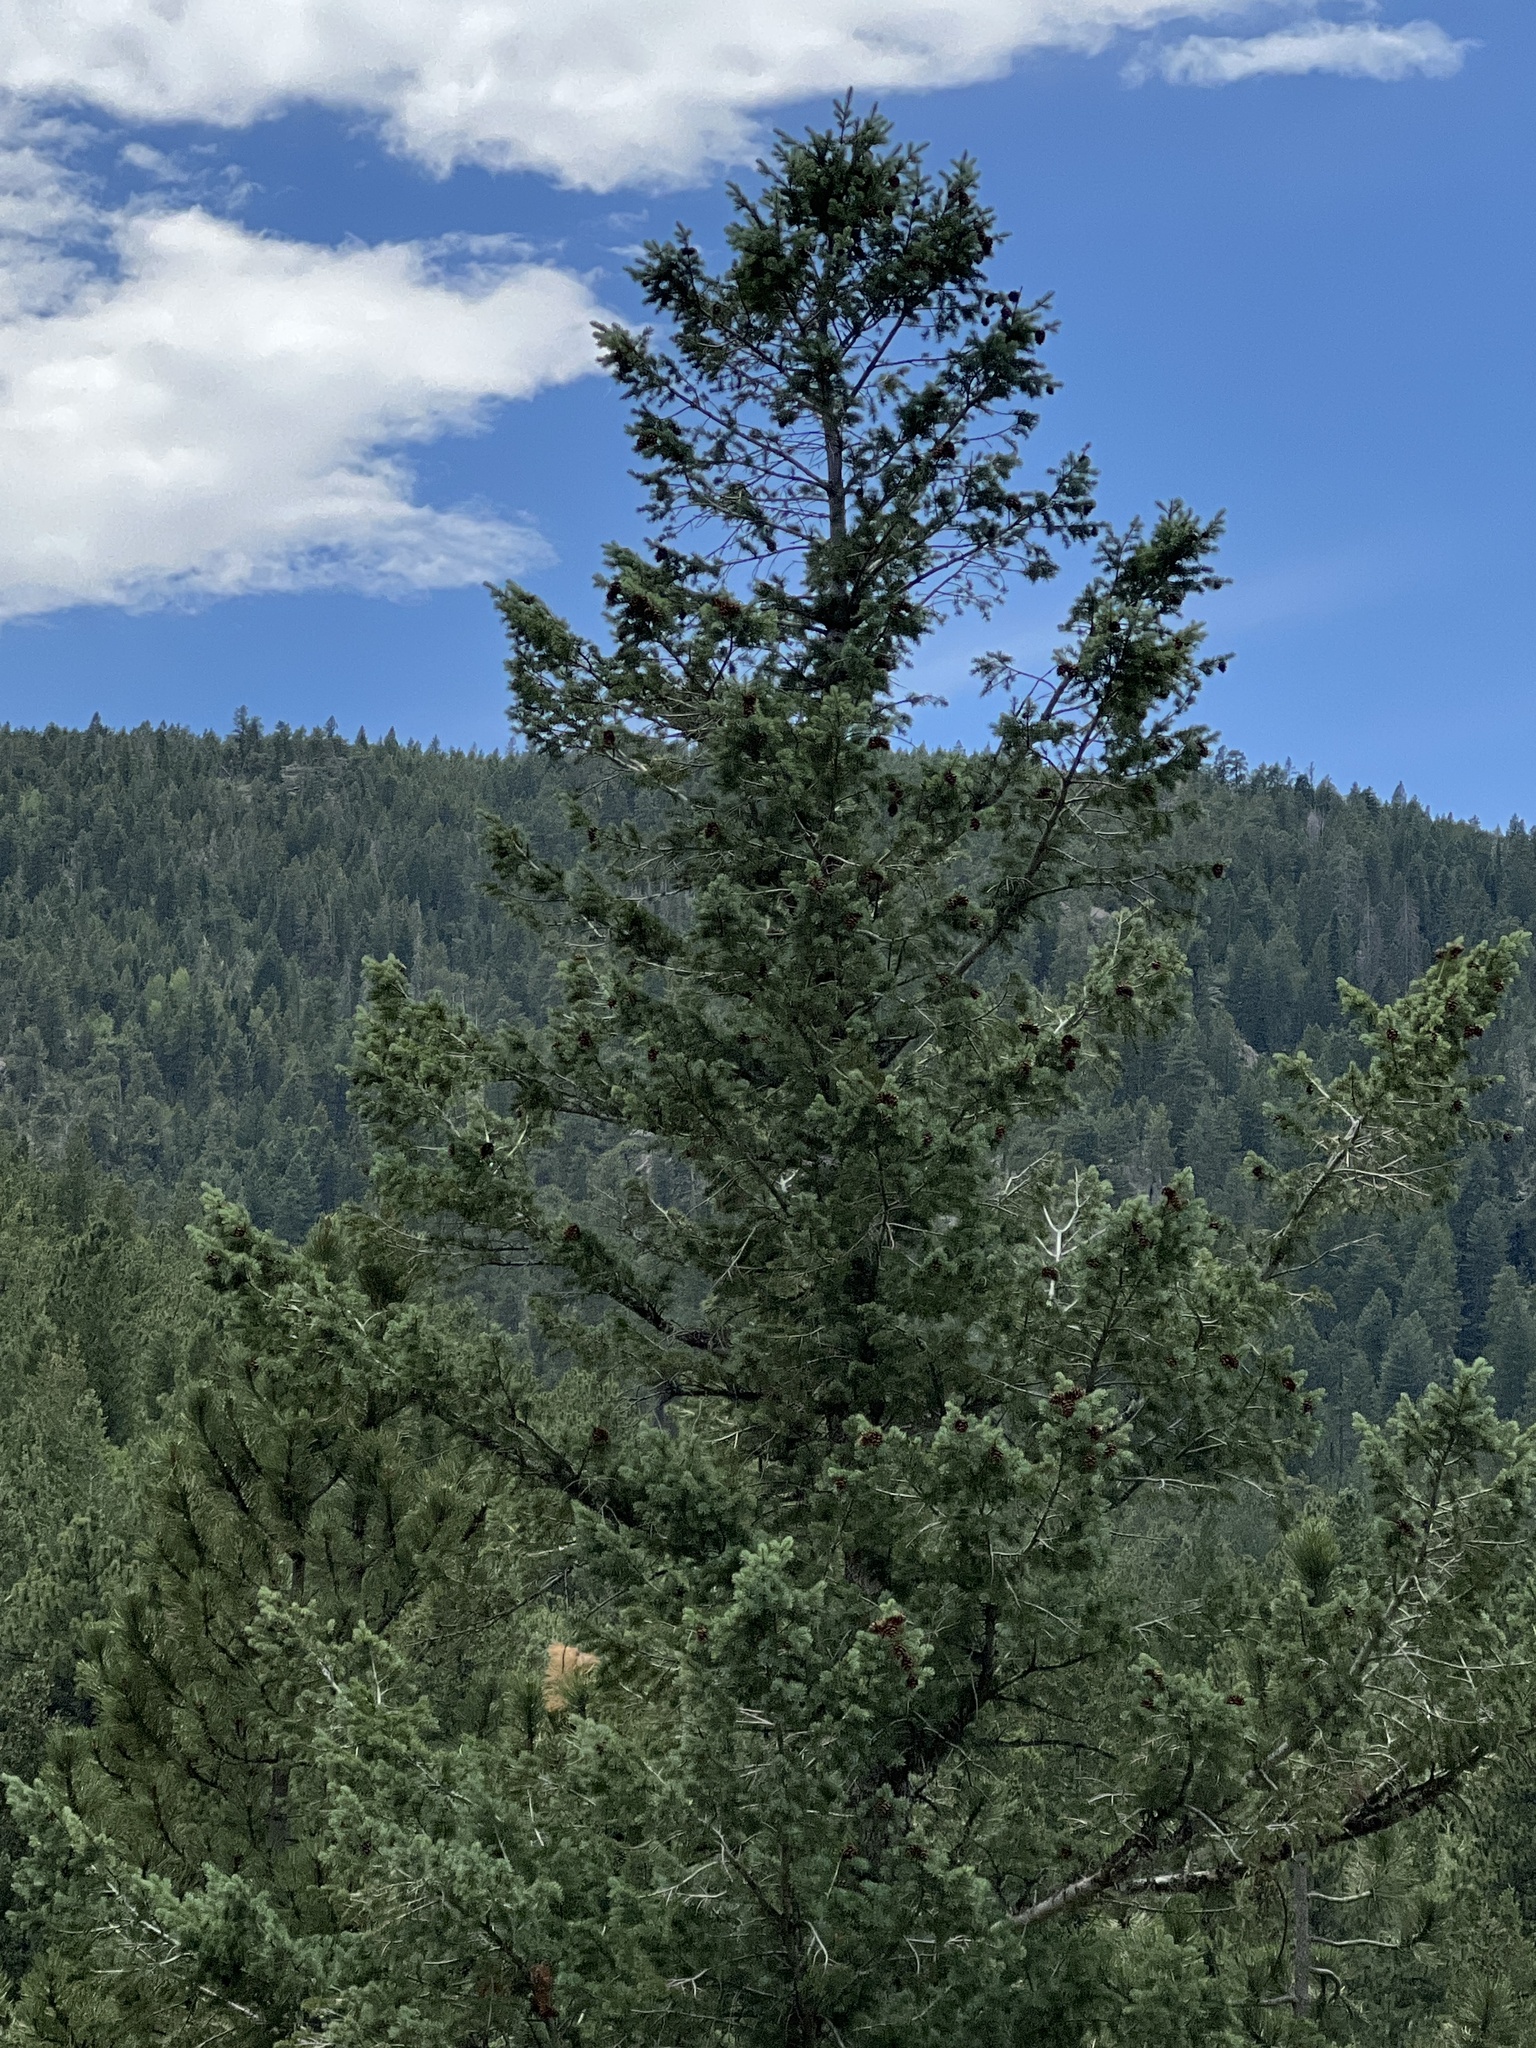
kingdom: Plantae
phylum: Tracheophyta
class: Pinopsida
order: Pinales
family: Pinaceae
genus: Pseudotsuga
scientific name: Pseudotsuga menziesii
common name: Douglas fir
